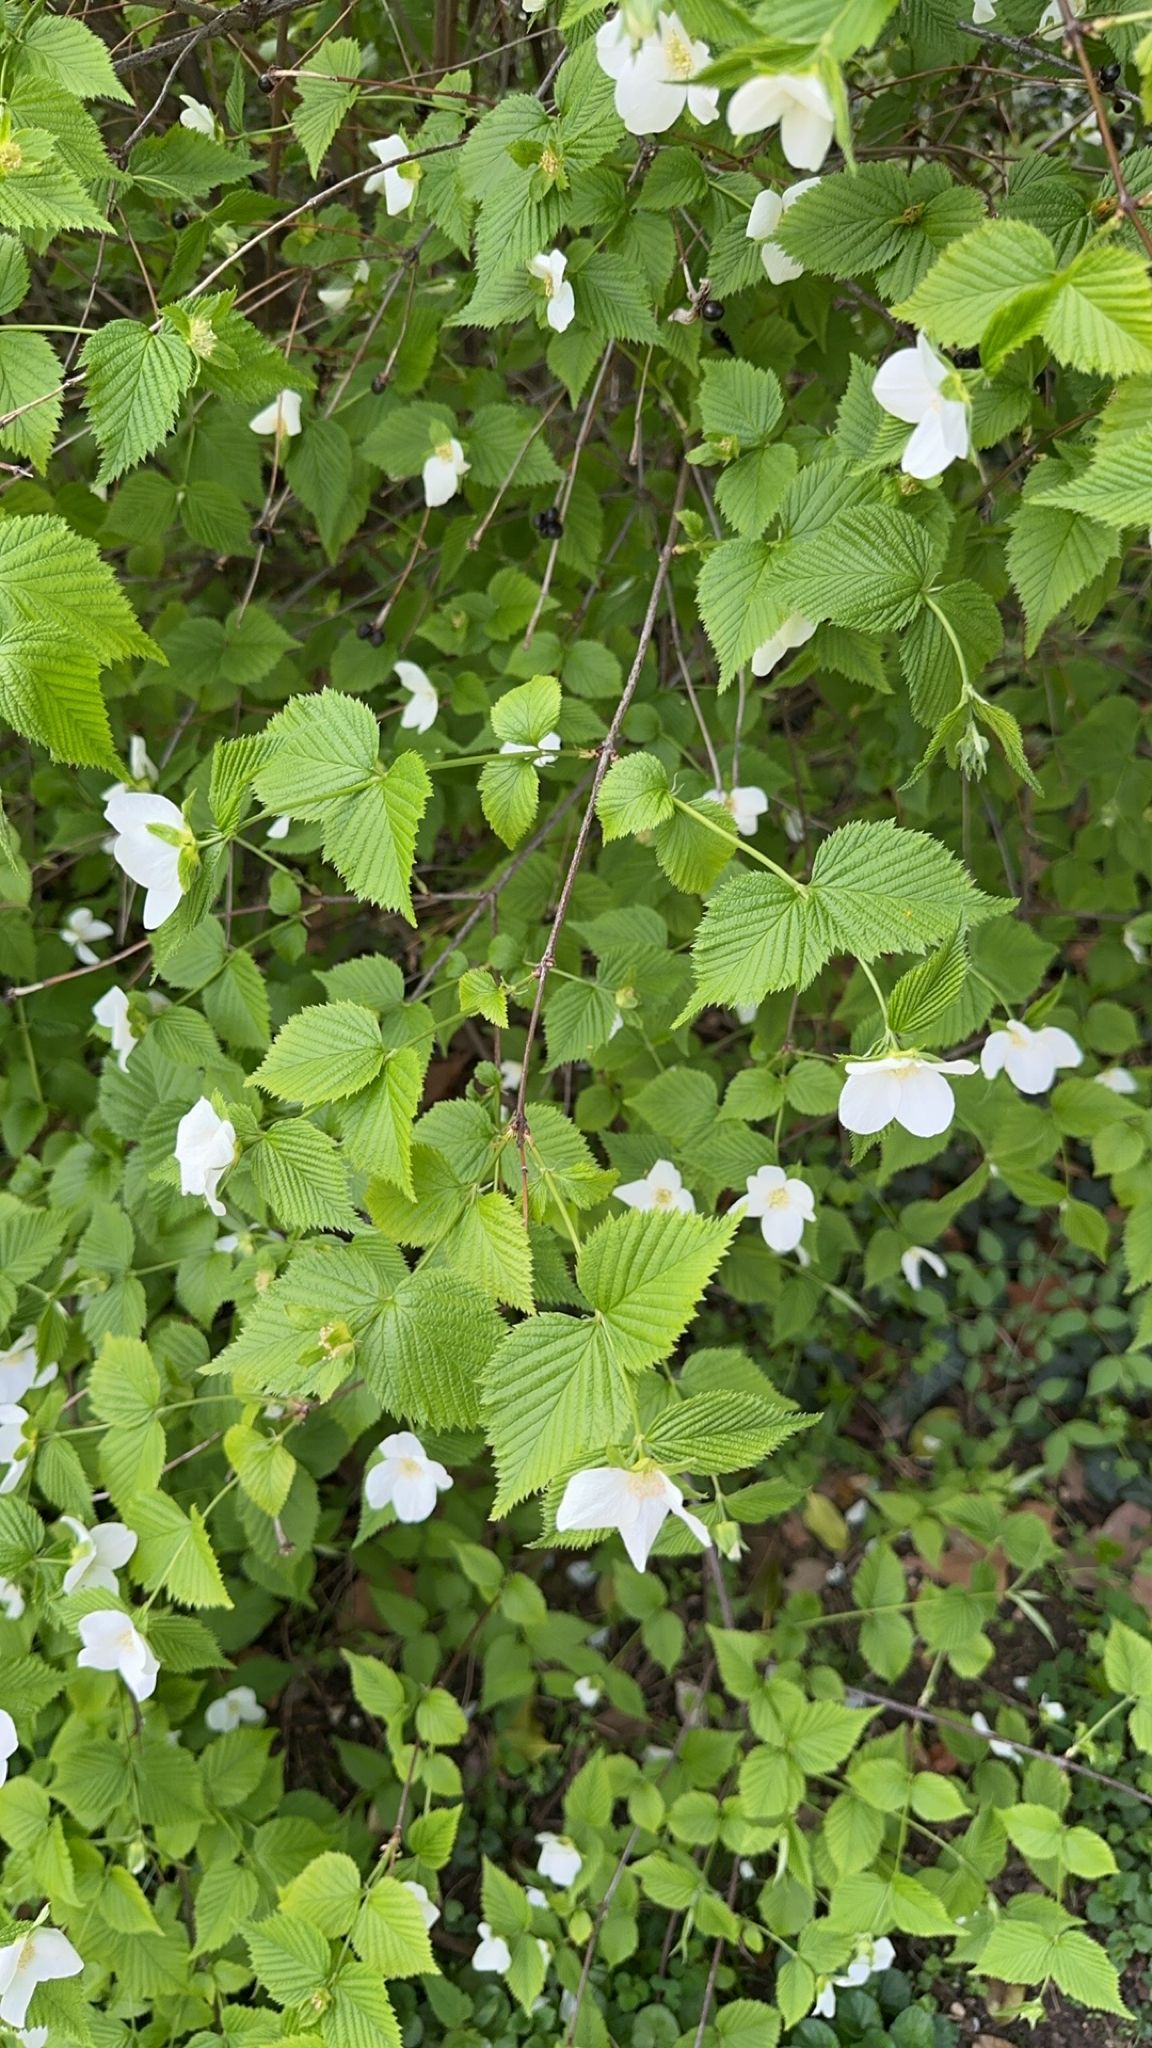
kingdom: Plantae
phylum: Tracheophyta
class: Magnoliopsida
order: Rosales
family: Rosaceae
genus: Rhodotypos
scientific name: Rhodotypos scandens
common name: Jetbead
